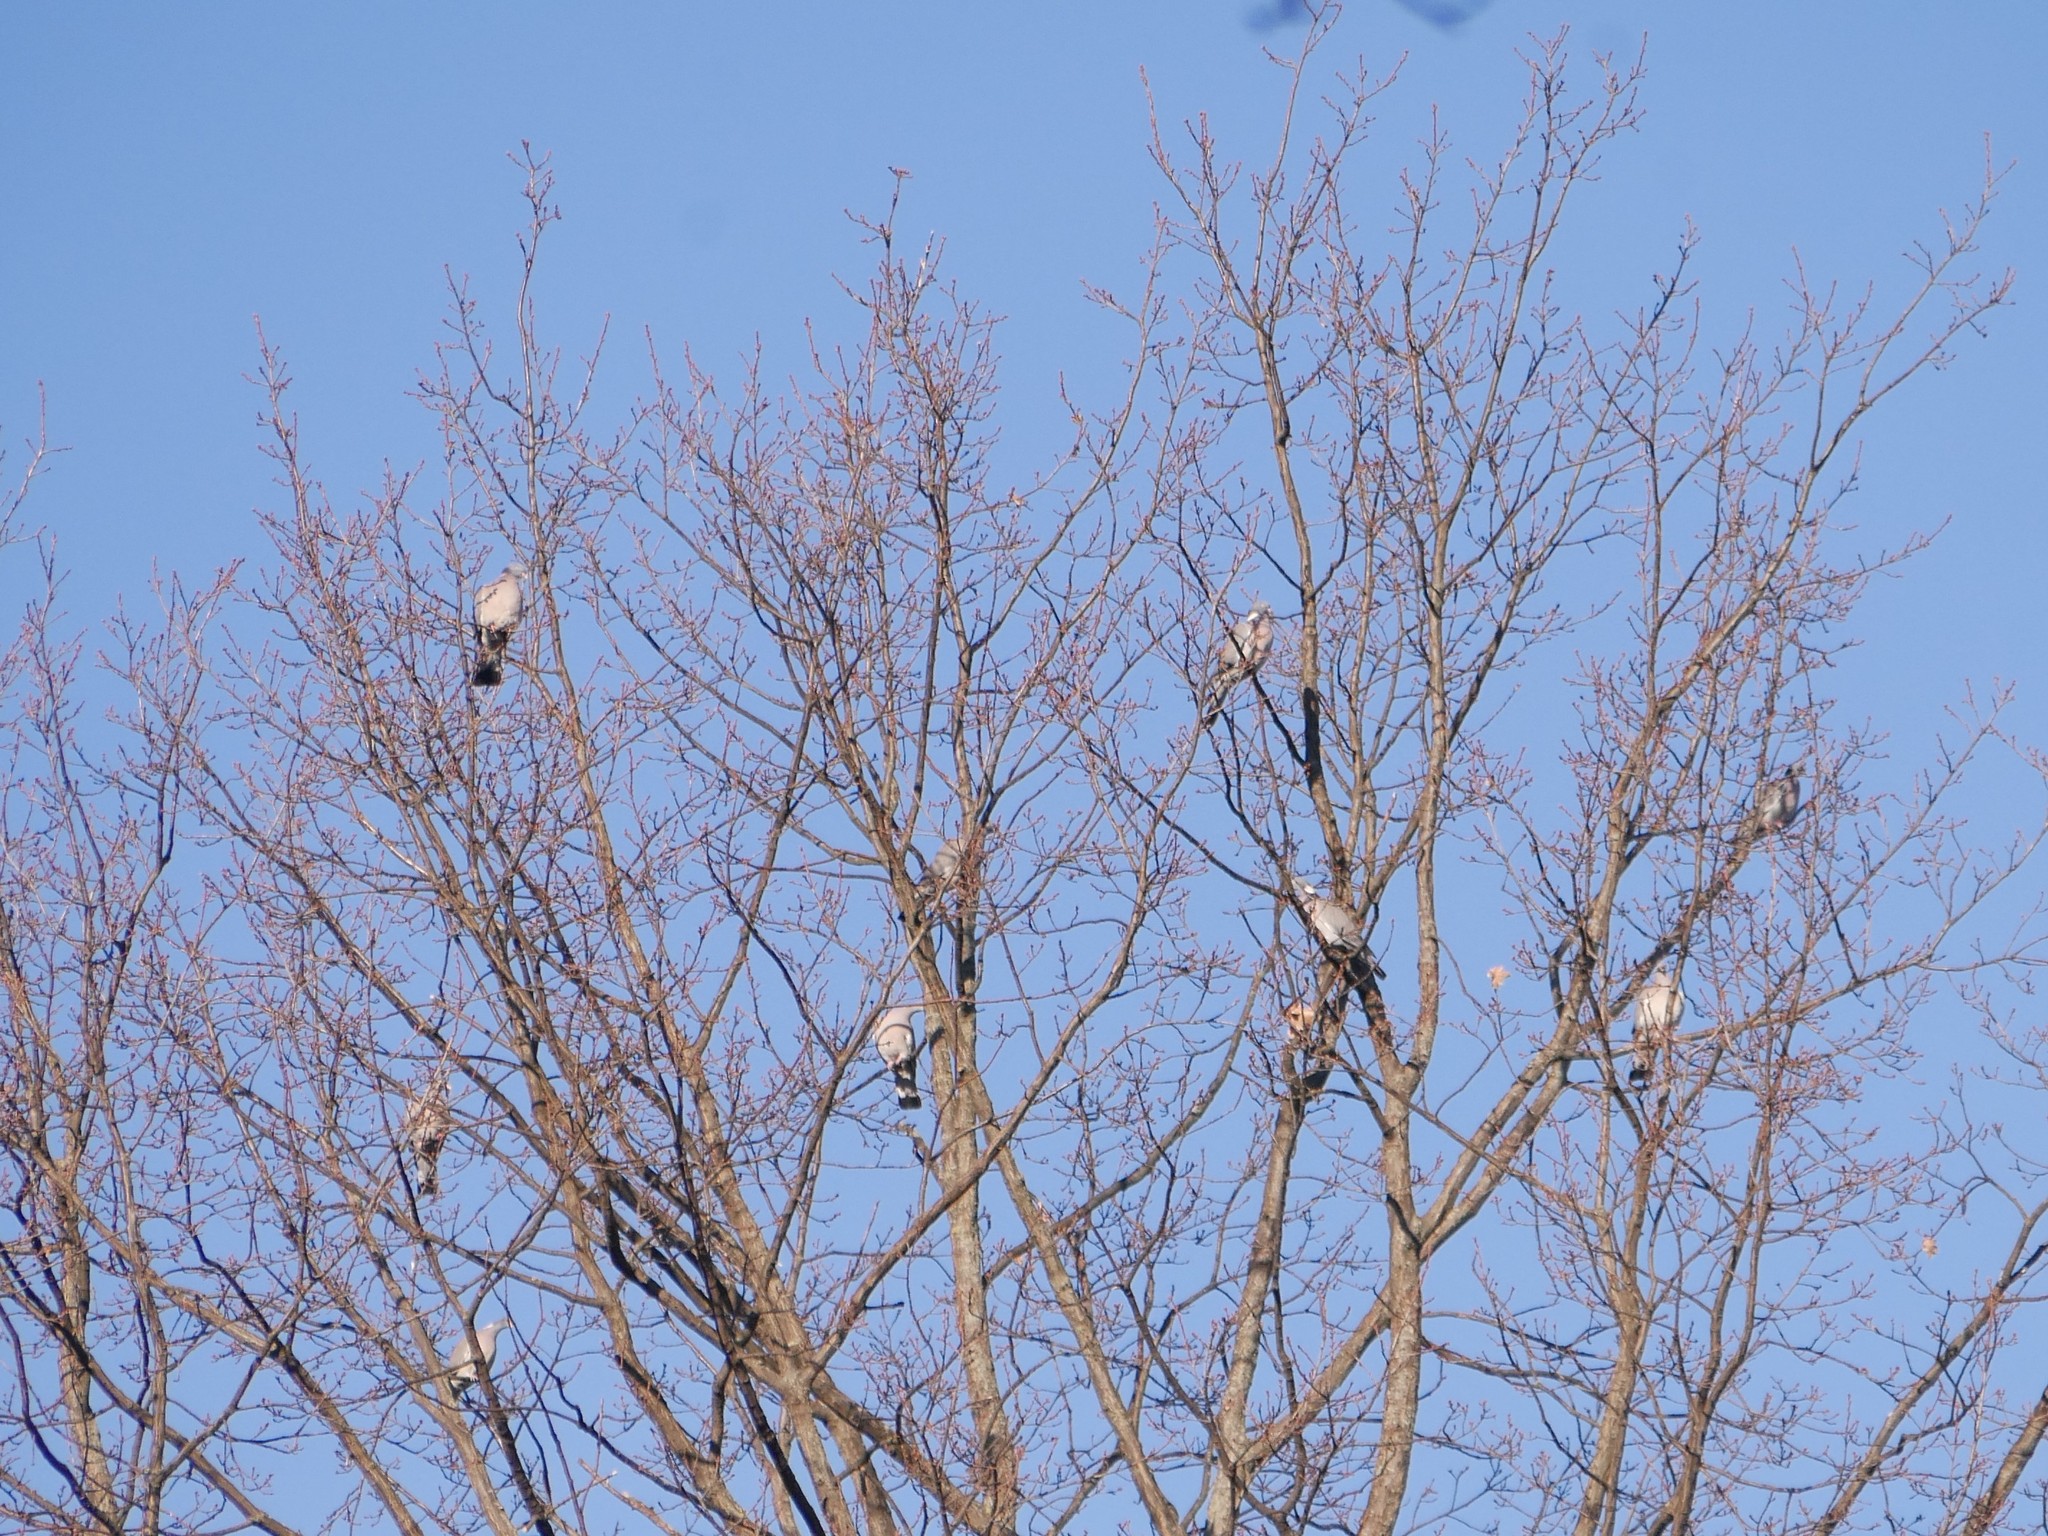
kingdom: Animalia
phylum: Chordata
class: Aves
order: Columbiformes
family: Columbidae
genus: Columba
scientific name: Columba palumbus
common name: Common wood pigeon
